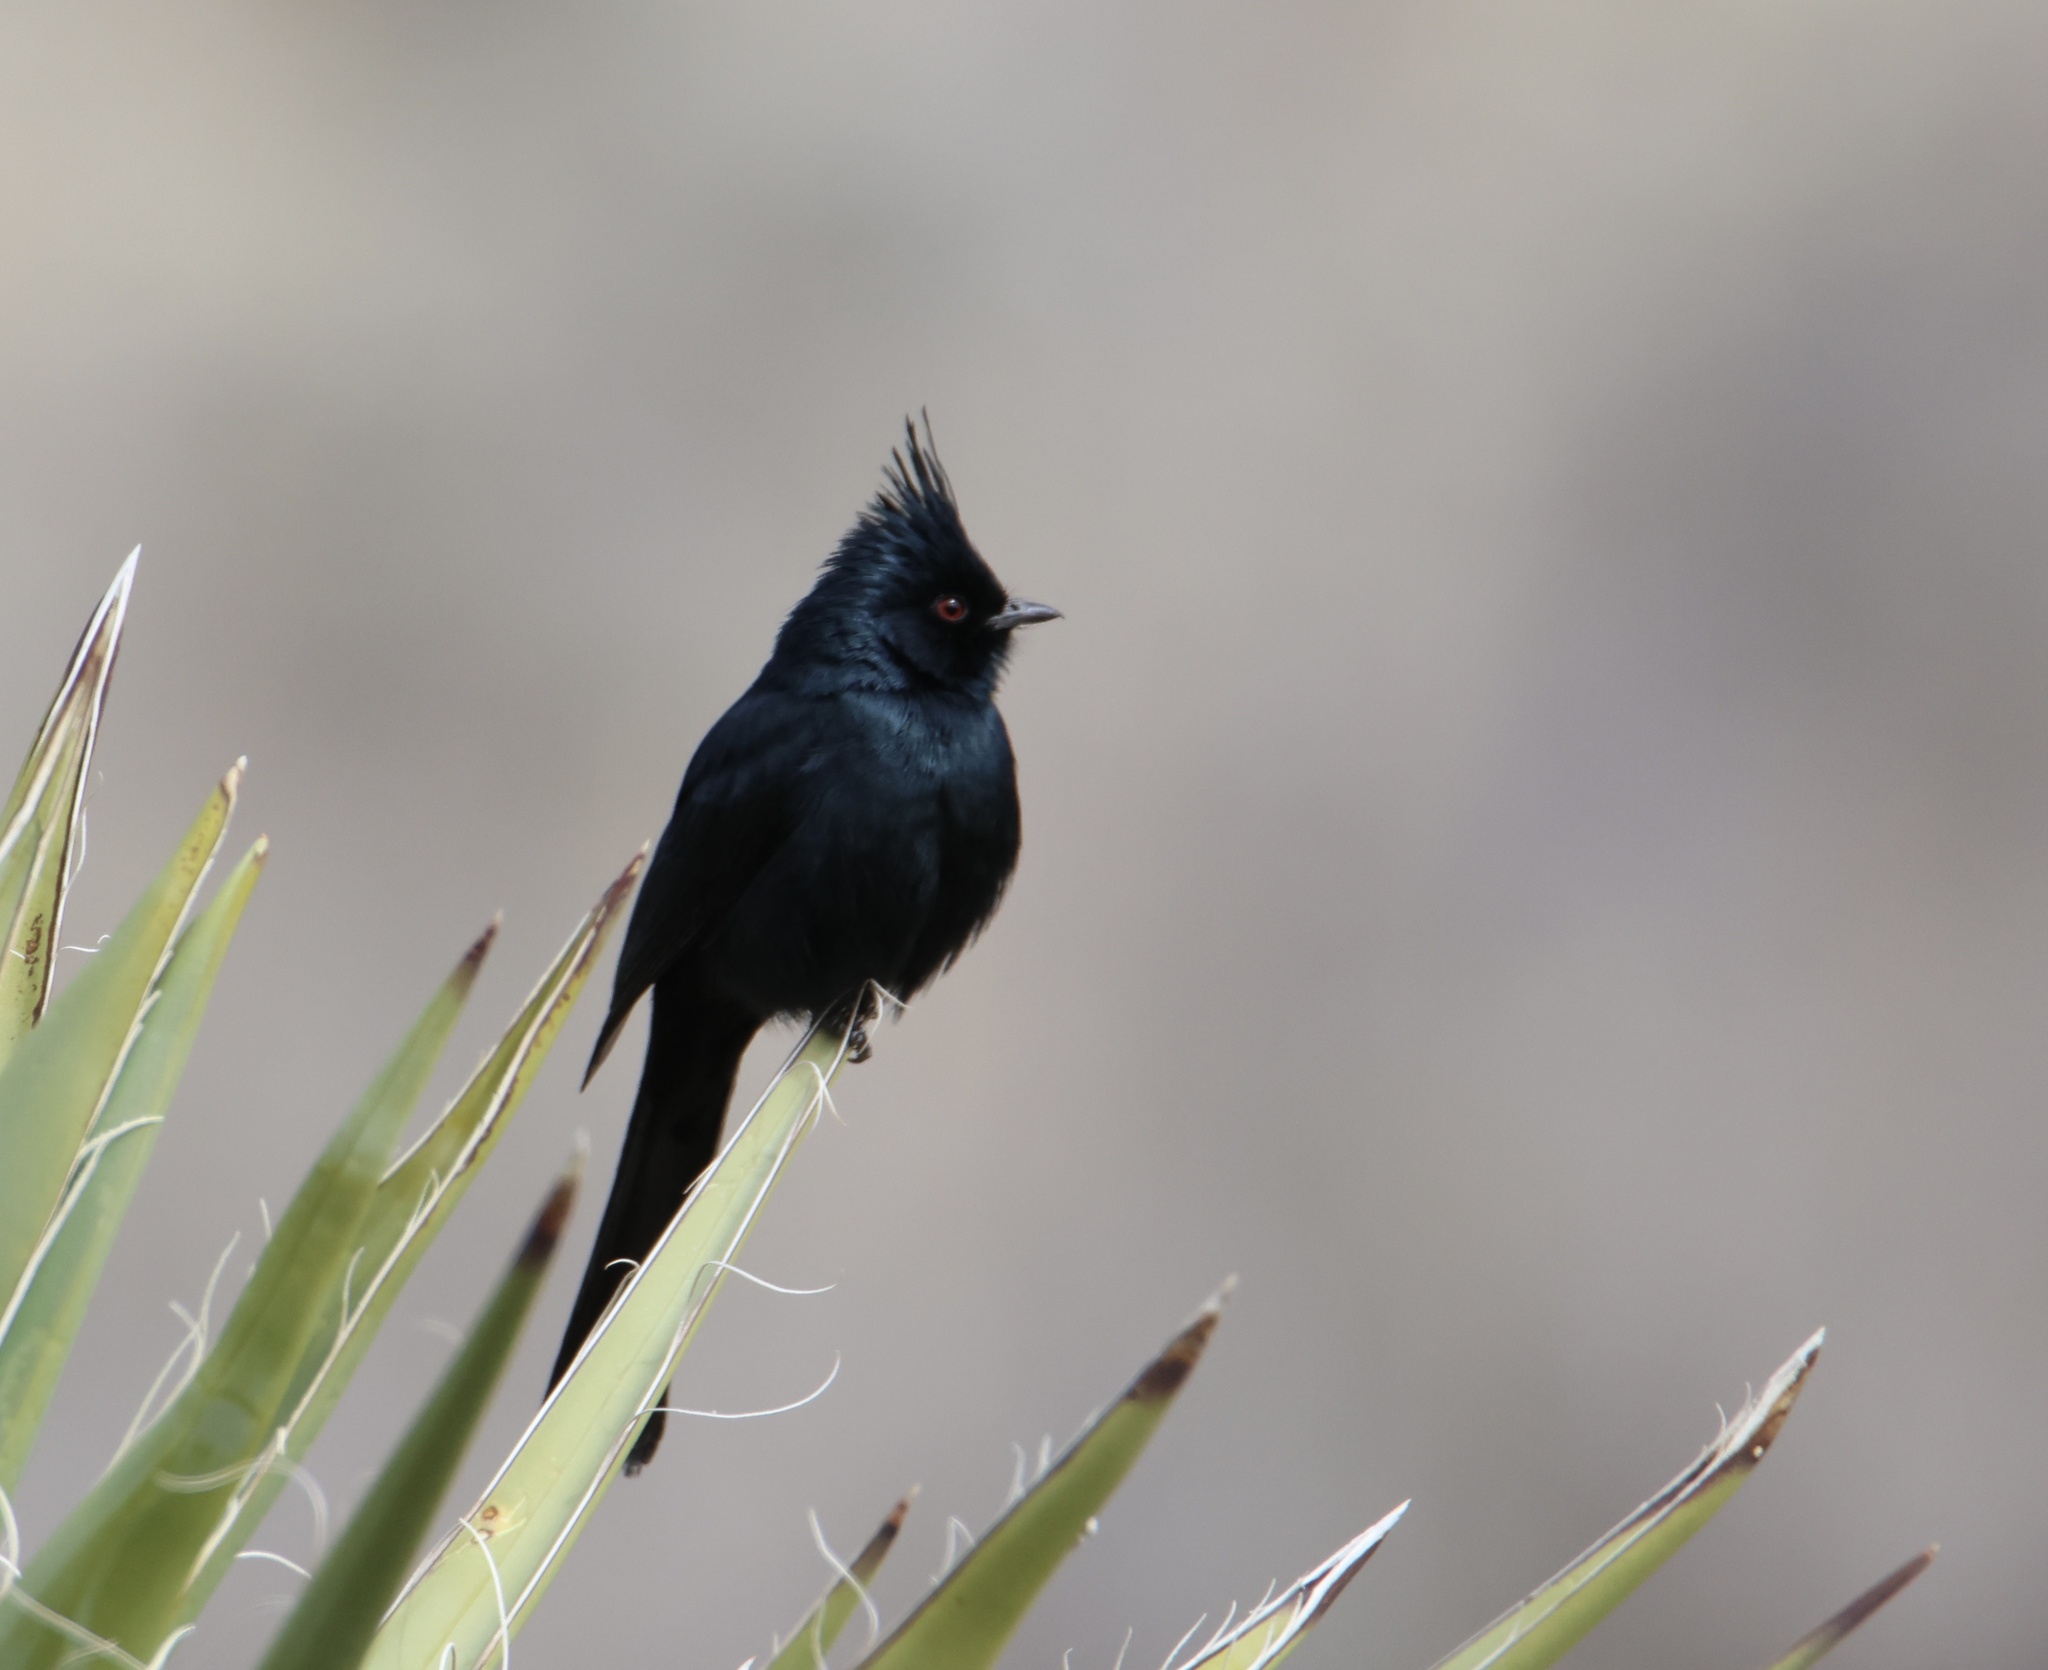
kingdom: Animalia
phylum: Chordata
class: Aves
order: Passeriformes
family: Ptilogonatidae
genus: Phainopepla
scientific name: Phainopepla nitens
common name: Phainopepla
